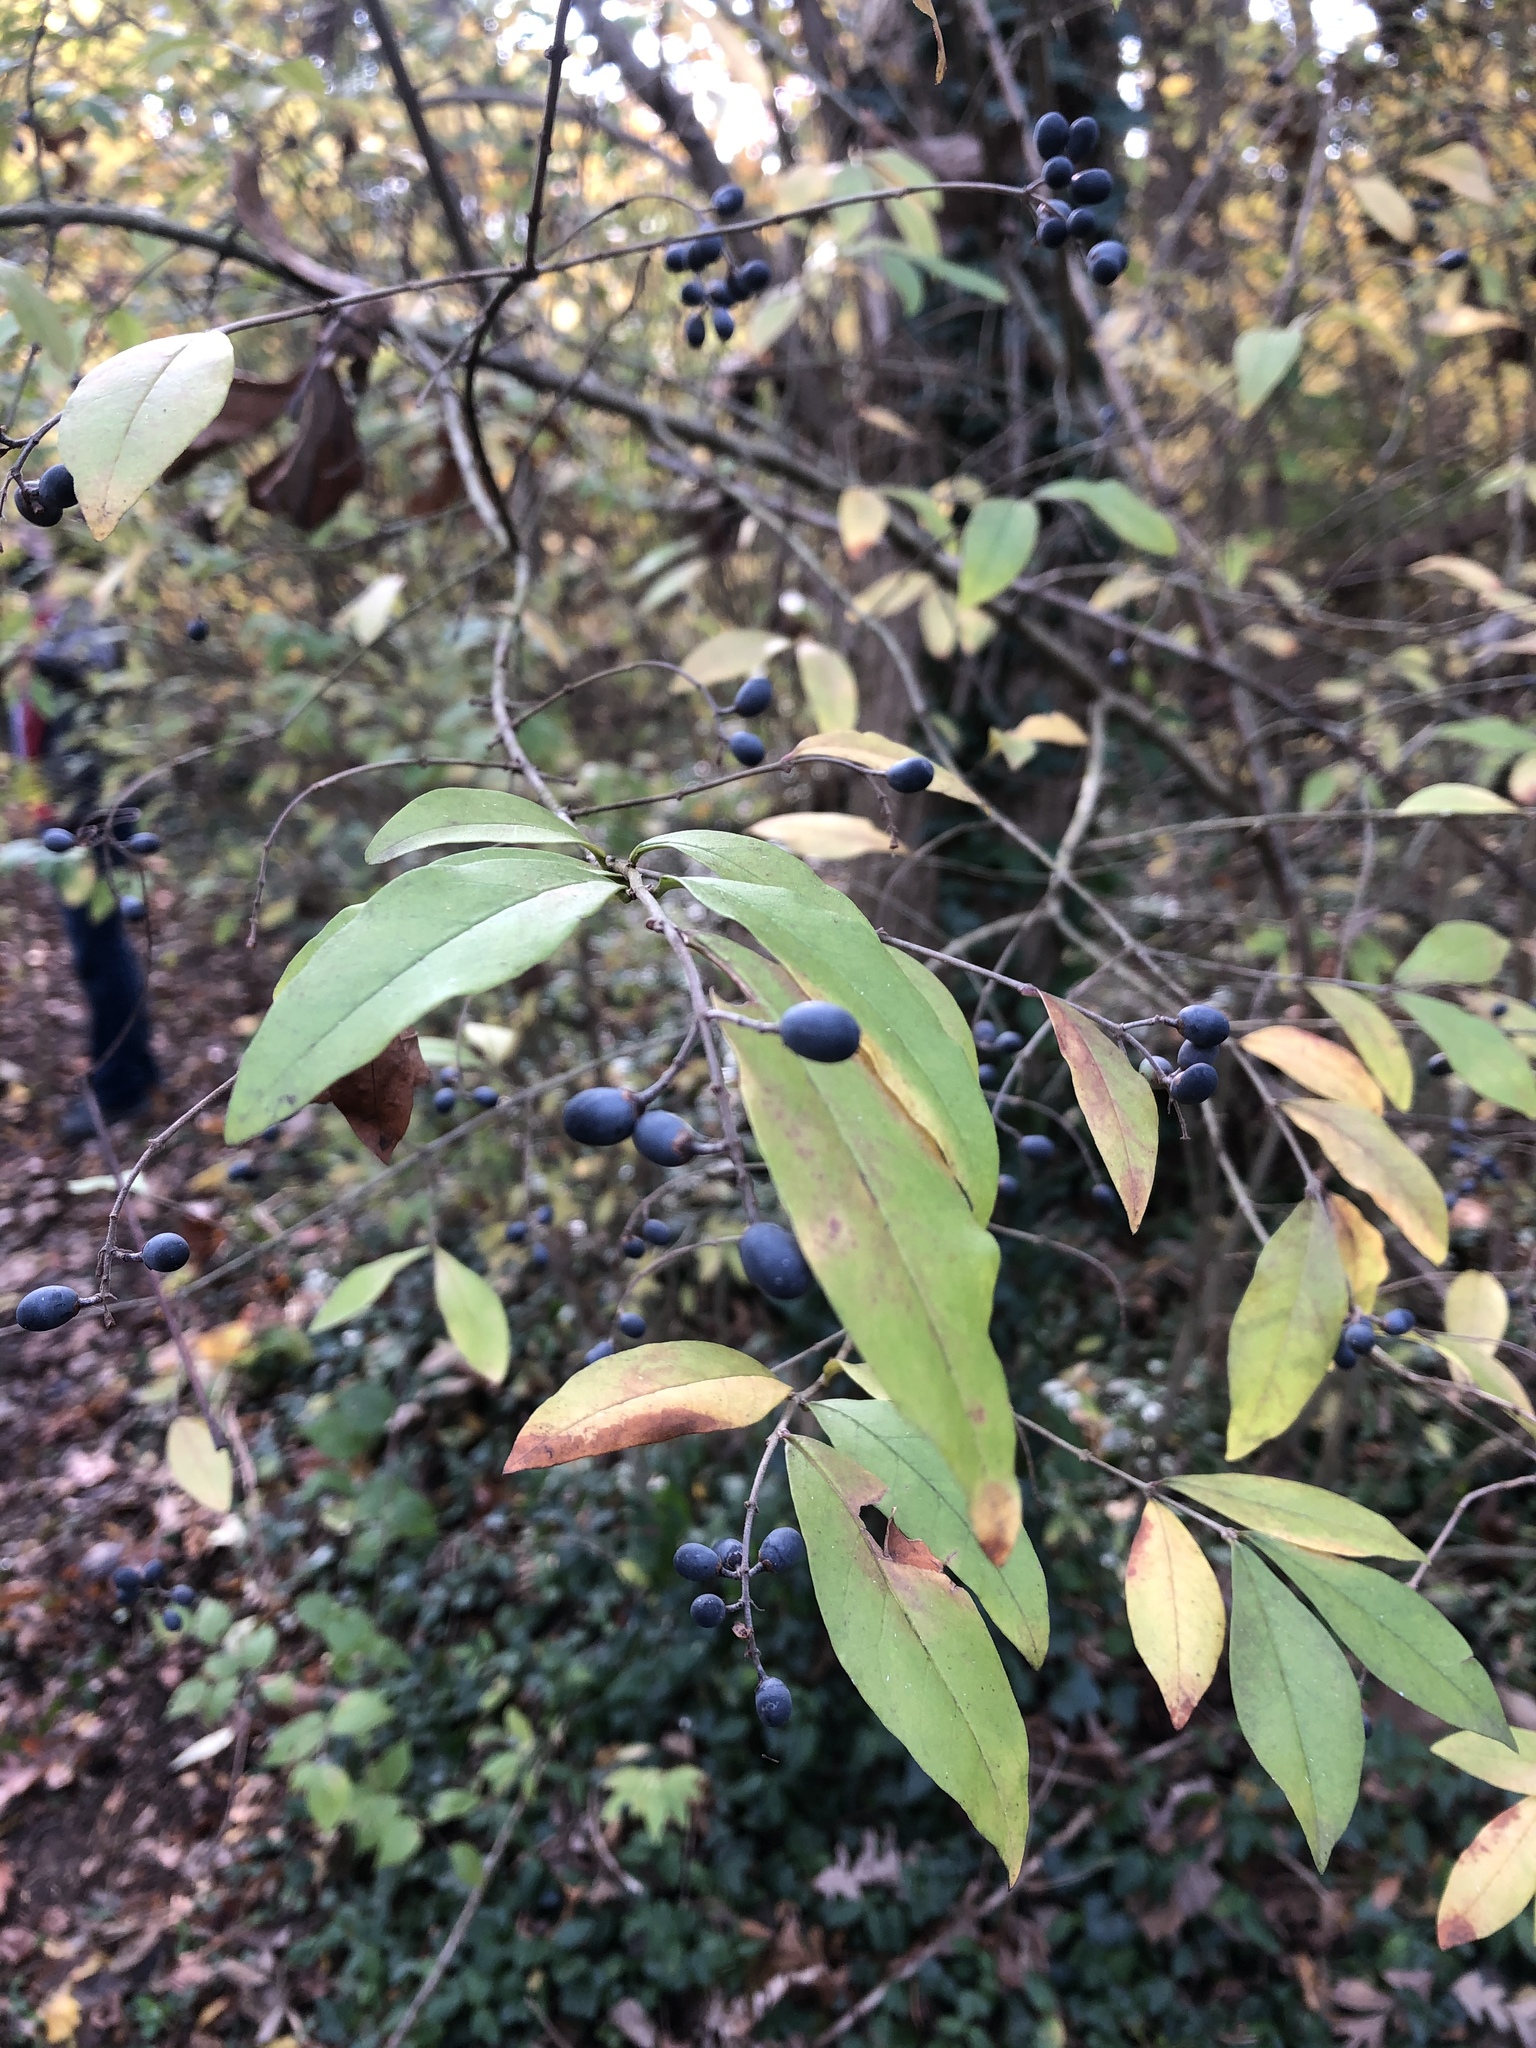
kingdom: Plantae
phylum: Tracheophyta
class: Magnoliopsida
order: Lamiales
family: Oleaceae
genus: Ligustrum
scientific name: Ligustrum obtusifolium
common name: Border privet
